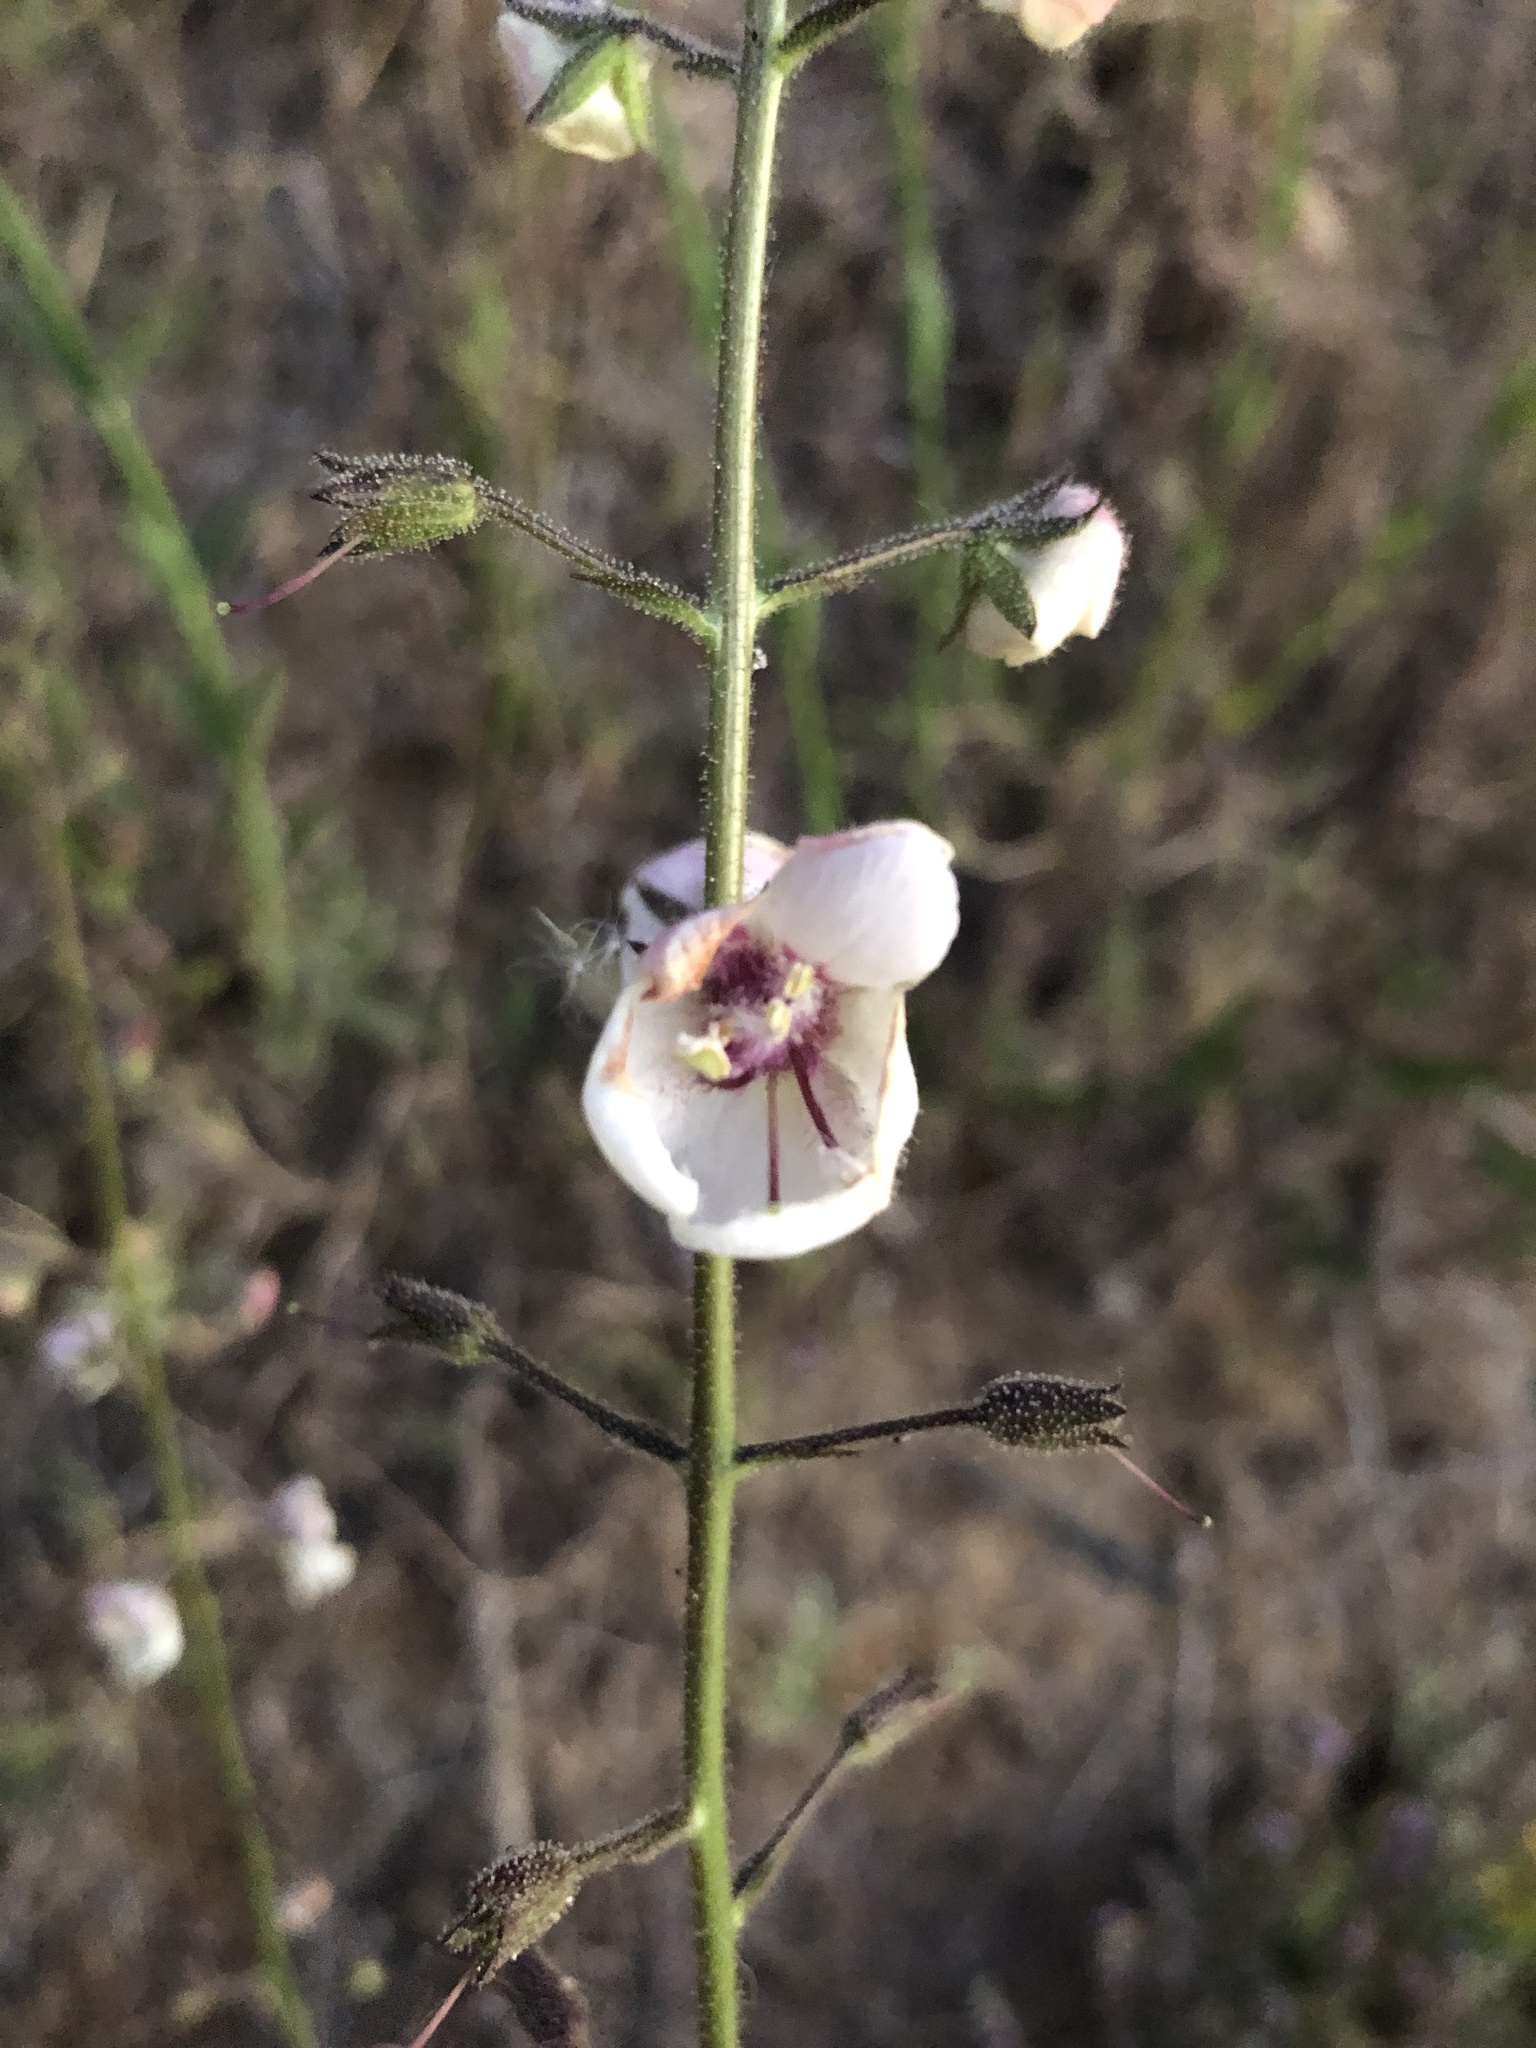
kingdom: Plantae
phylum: Tracheophyta
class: Magnoliopsida
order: Lamiales
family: Scrophulariaceae
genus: Verbascum
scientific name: Verbascum blattaria
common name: Moth mullein
